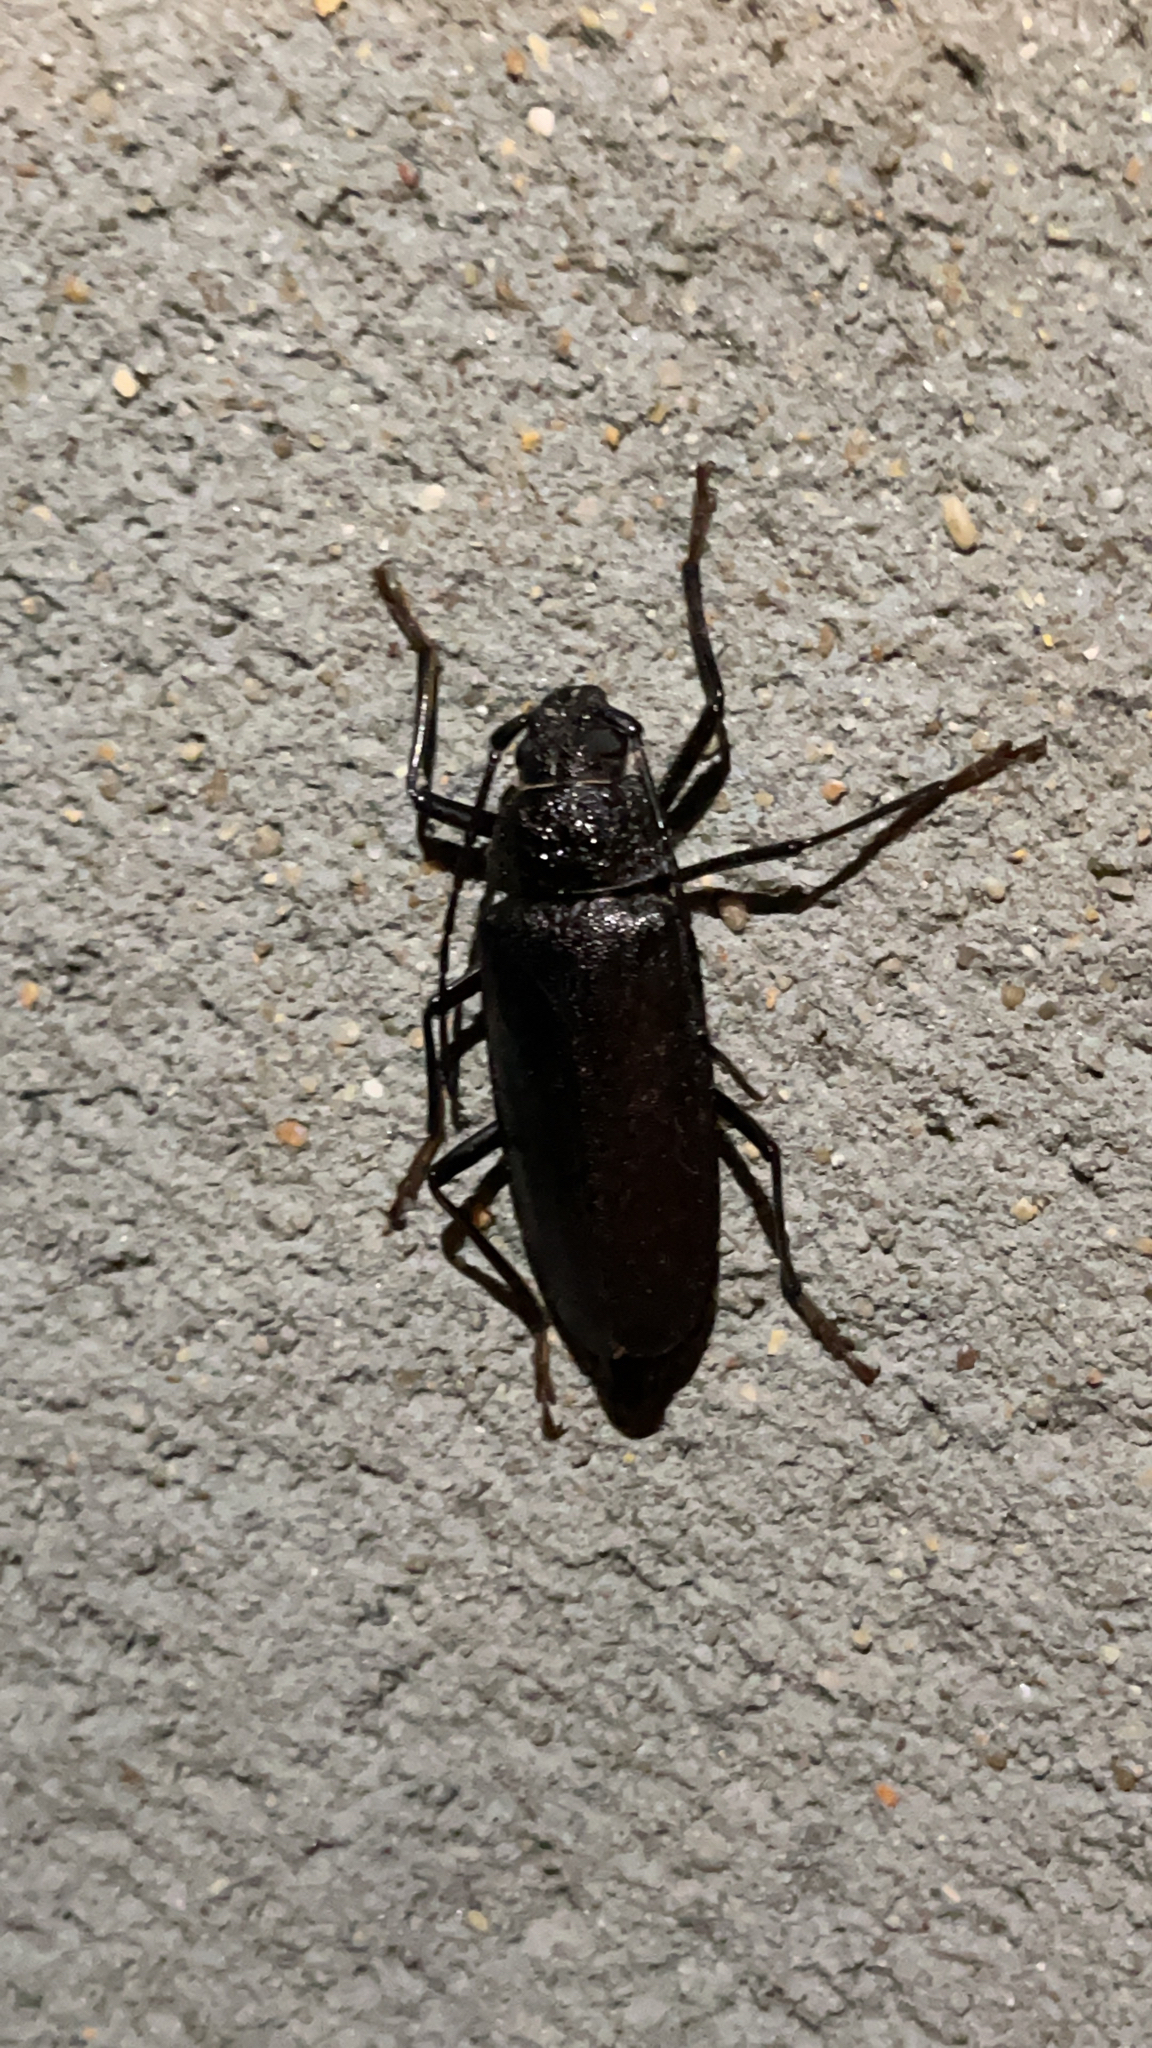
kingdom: Animalia
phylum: Arthropoda
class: Insecta
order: Coleoptera
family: Cerambycidae
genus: Ergates
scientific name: Ergates faber
